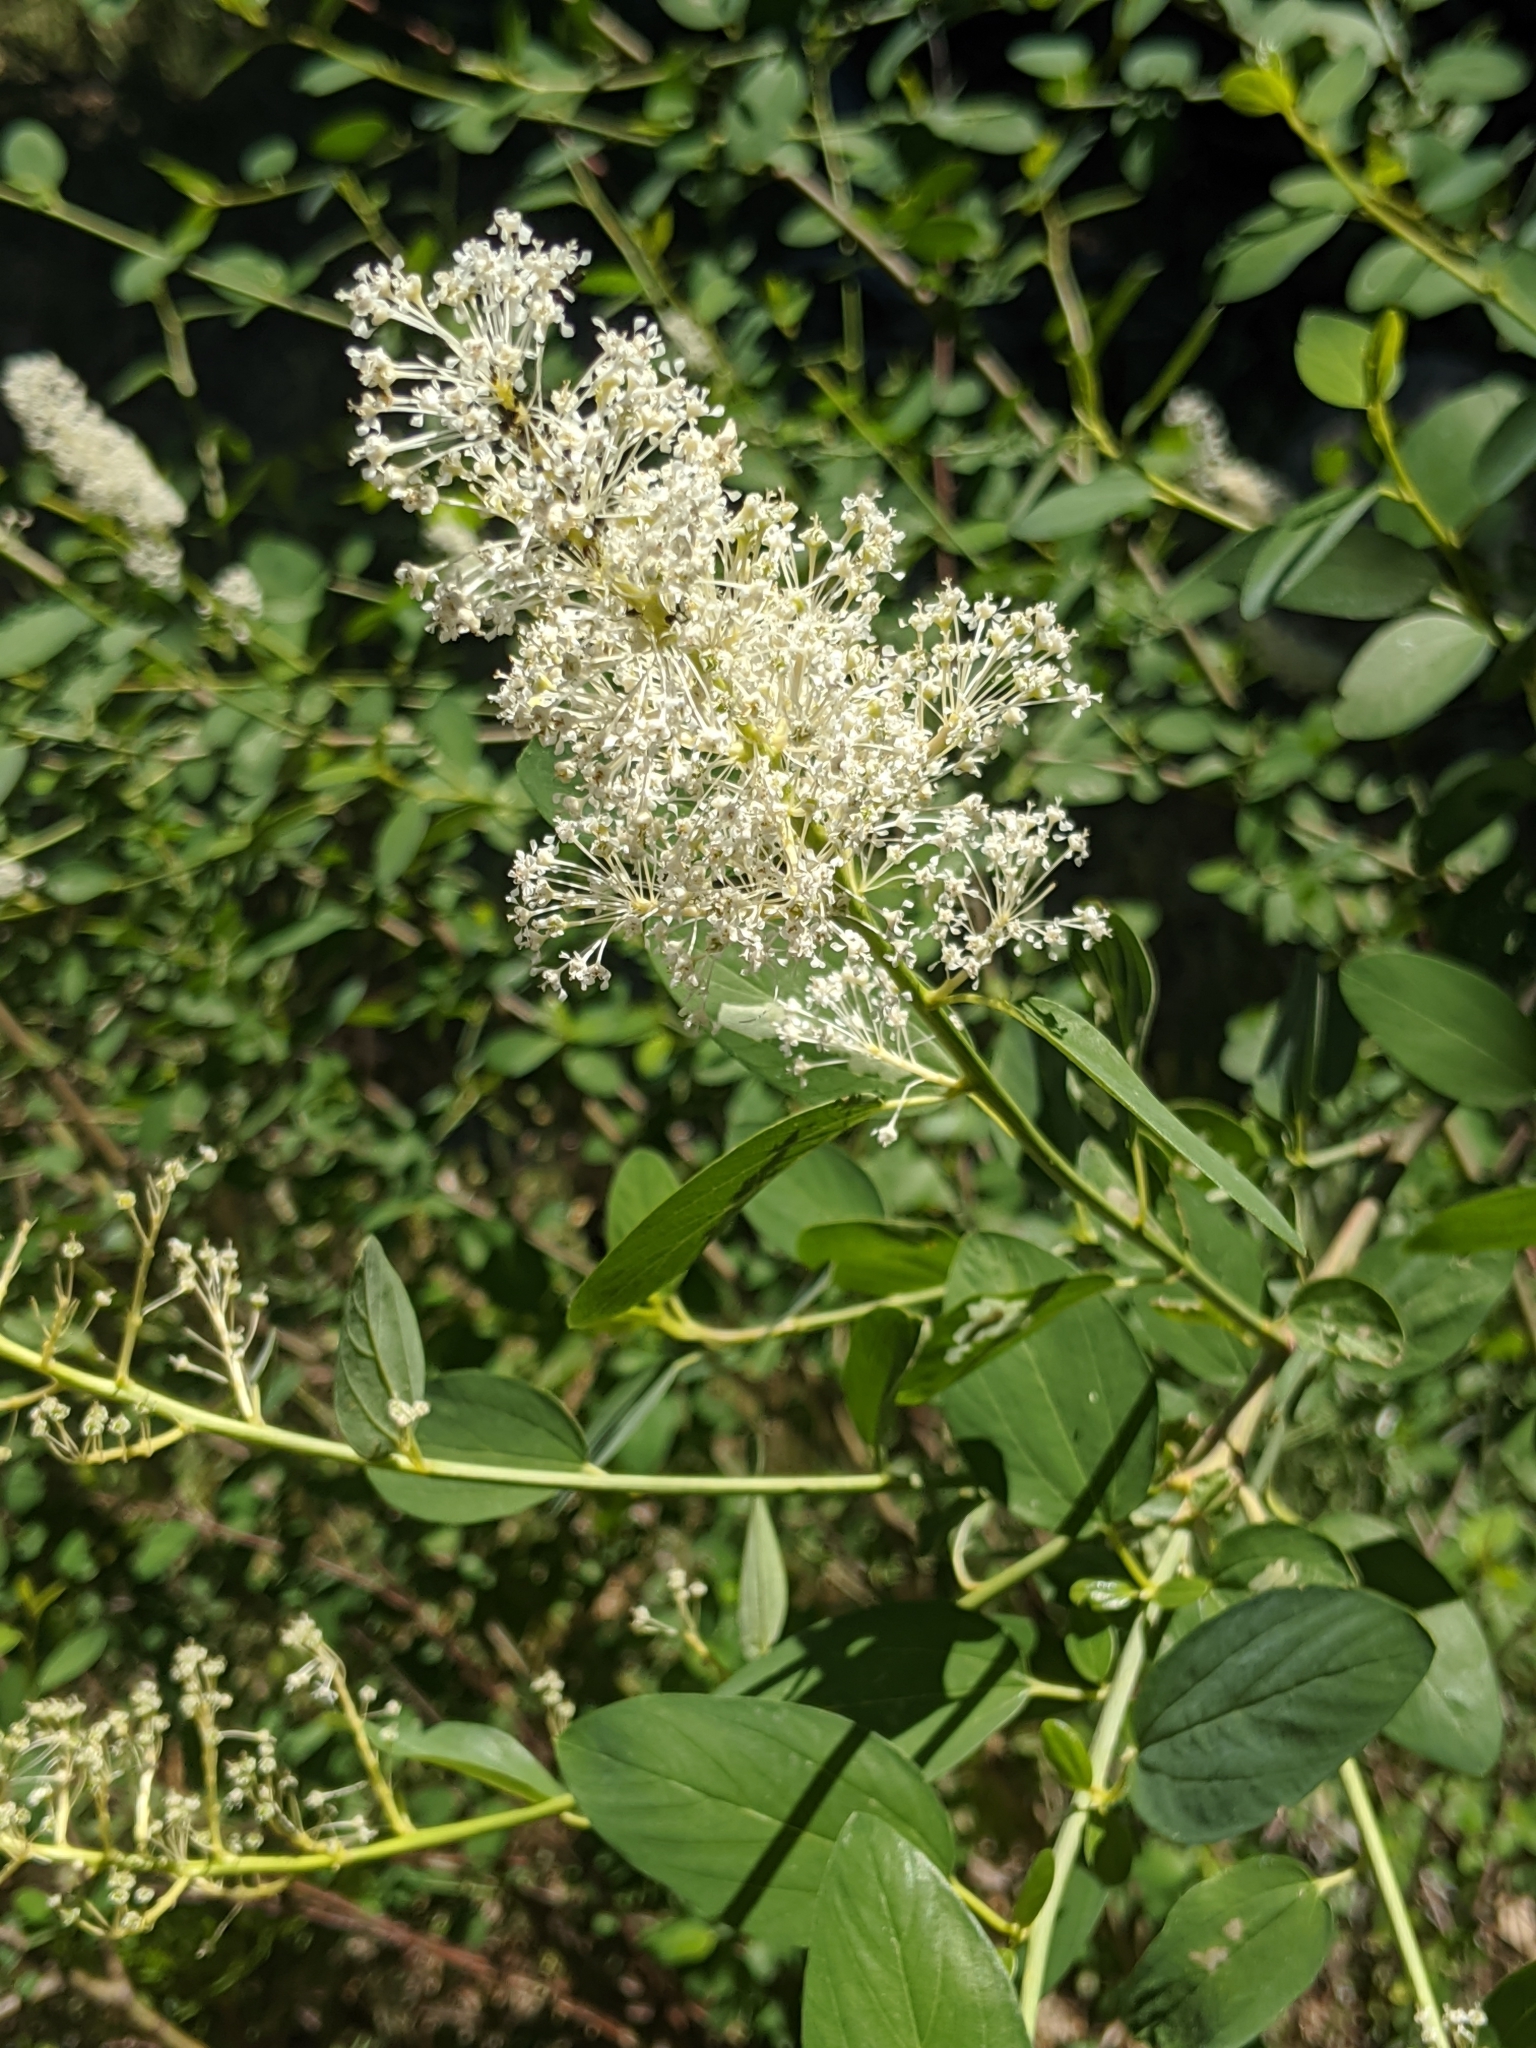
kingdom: Plantae
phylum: Tracheophyta
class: Magnoliopsida
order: Rosales
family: Rhamnaceae
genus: Ceanothus
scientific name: Ceanothus integerrimus
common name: Deerbrush ceanothus
